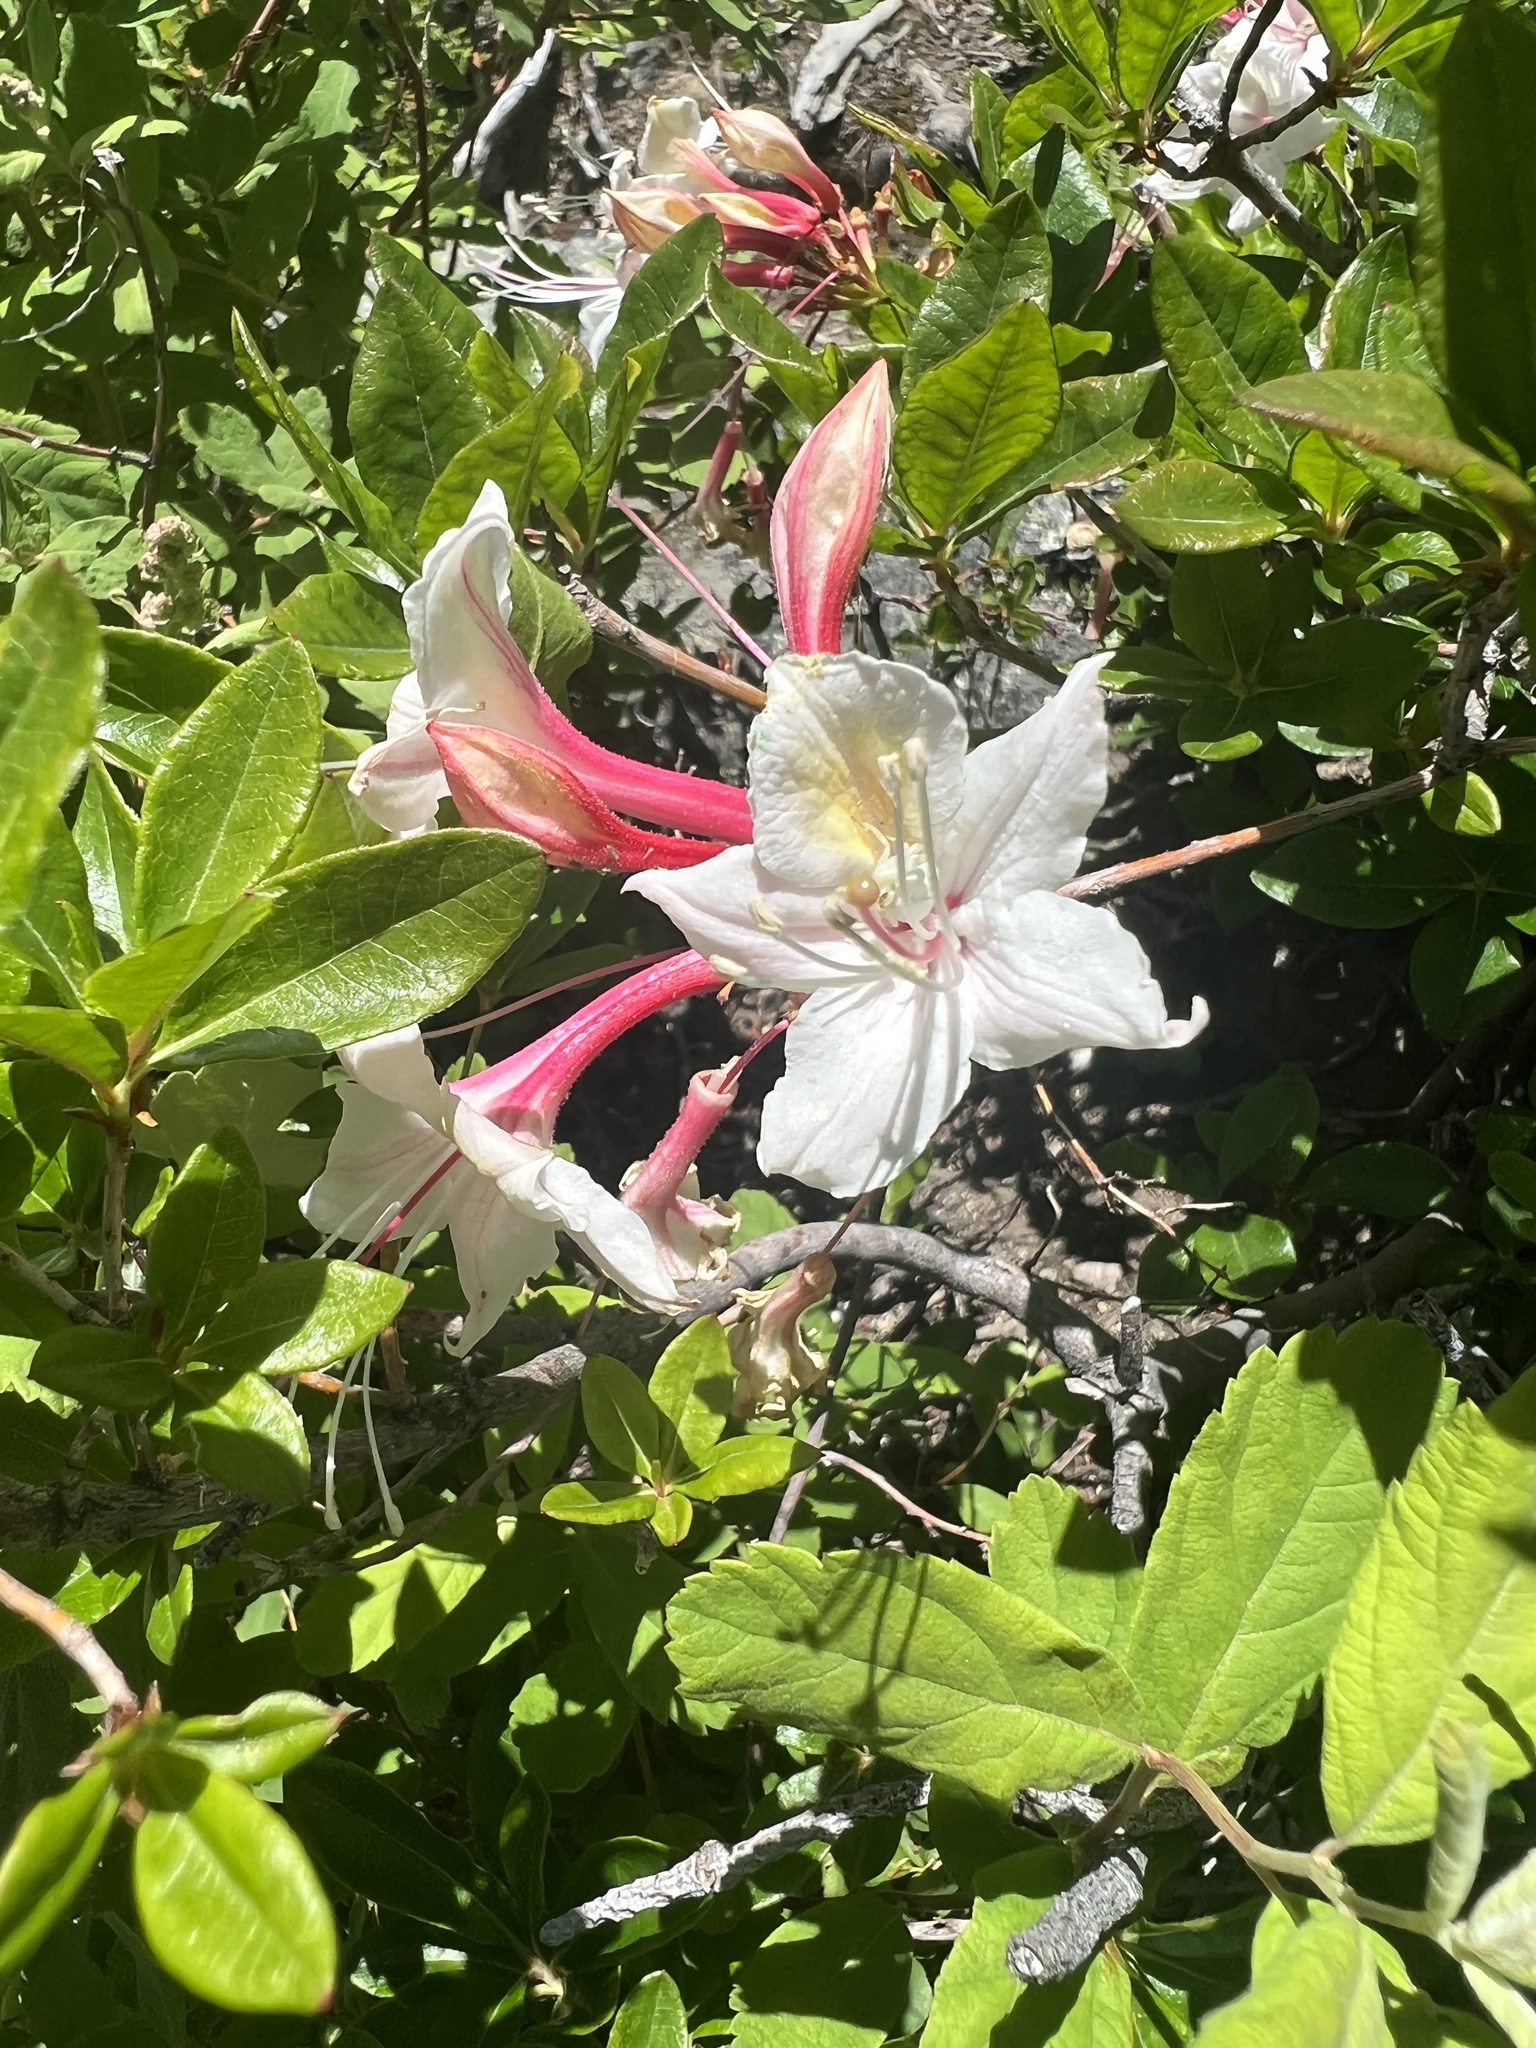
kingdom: Plantae
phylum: Tracheophyta
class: Magnoliopsida
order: Ericales
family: Ericaceae
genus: Rhododendron
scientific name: Rhododendron occidentale
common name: Western azalea
